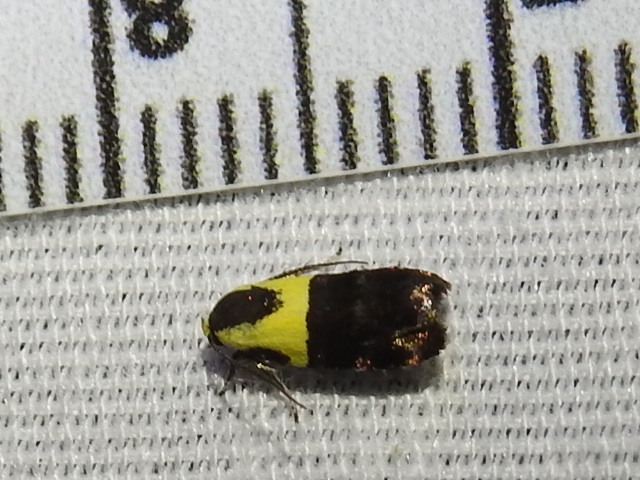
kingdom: Animalia
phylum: Arthropoda
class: Insecta
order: Lepidoptera
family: Depressariidae
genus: Rectiostoma
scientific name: Rectiostoma xanthobasis
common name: Yellow-vested moth
